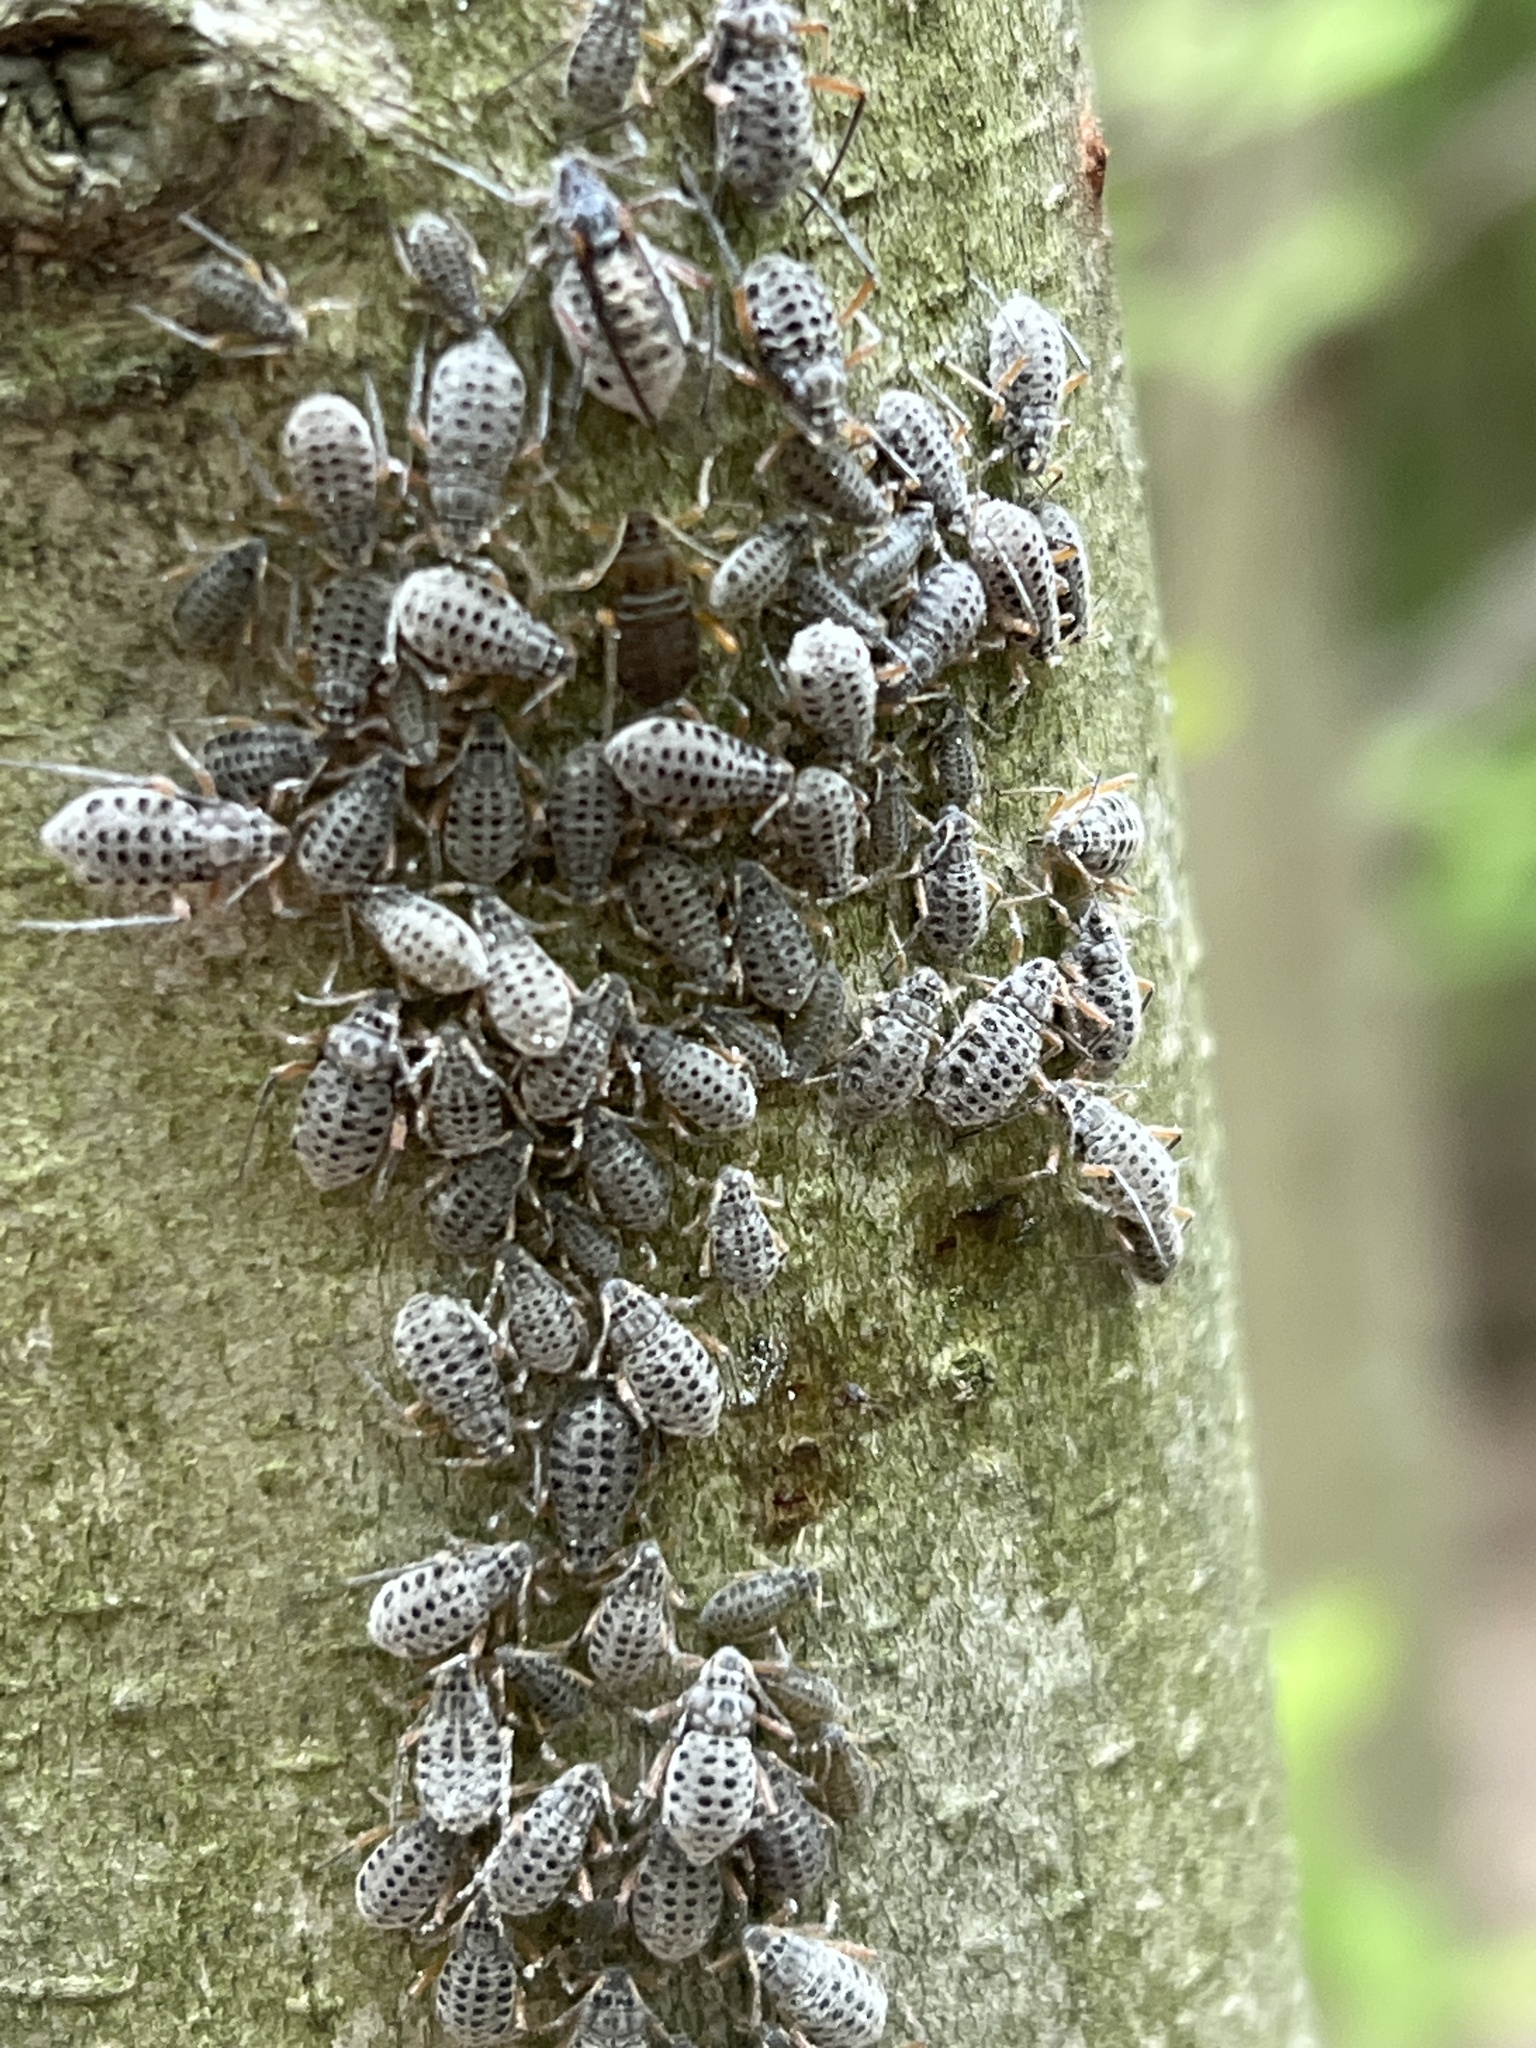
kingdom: Animalia
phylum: Arthropoda
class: Insecta
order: Hemiptera
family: Aphididae
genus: Longistigma
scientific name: Longistigma caryae
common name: Giant bark aphid
